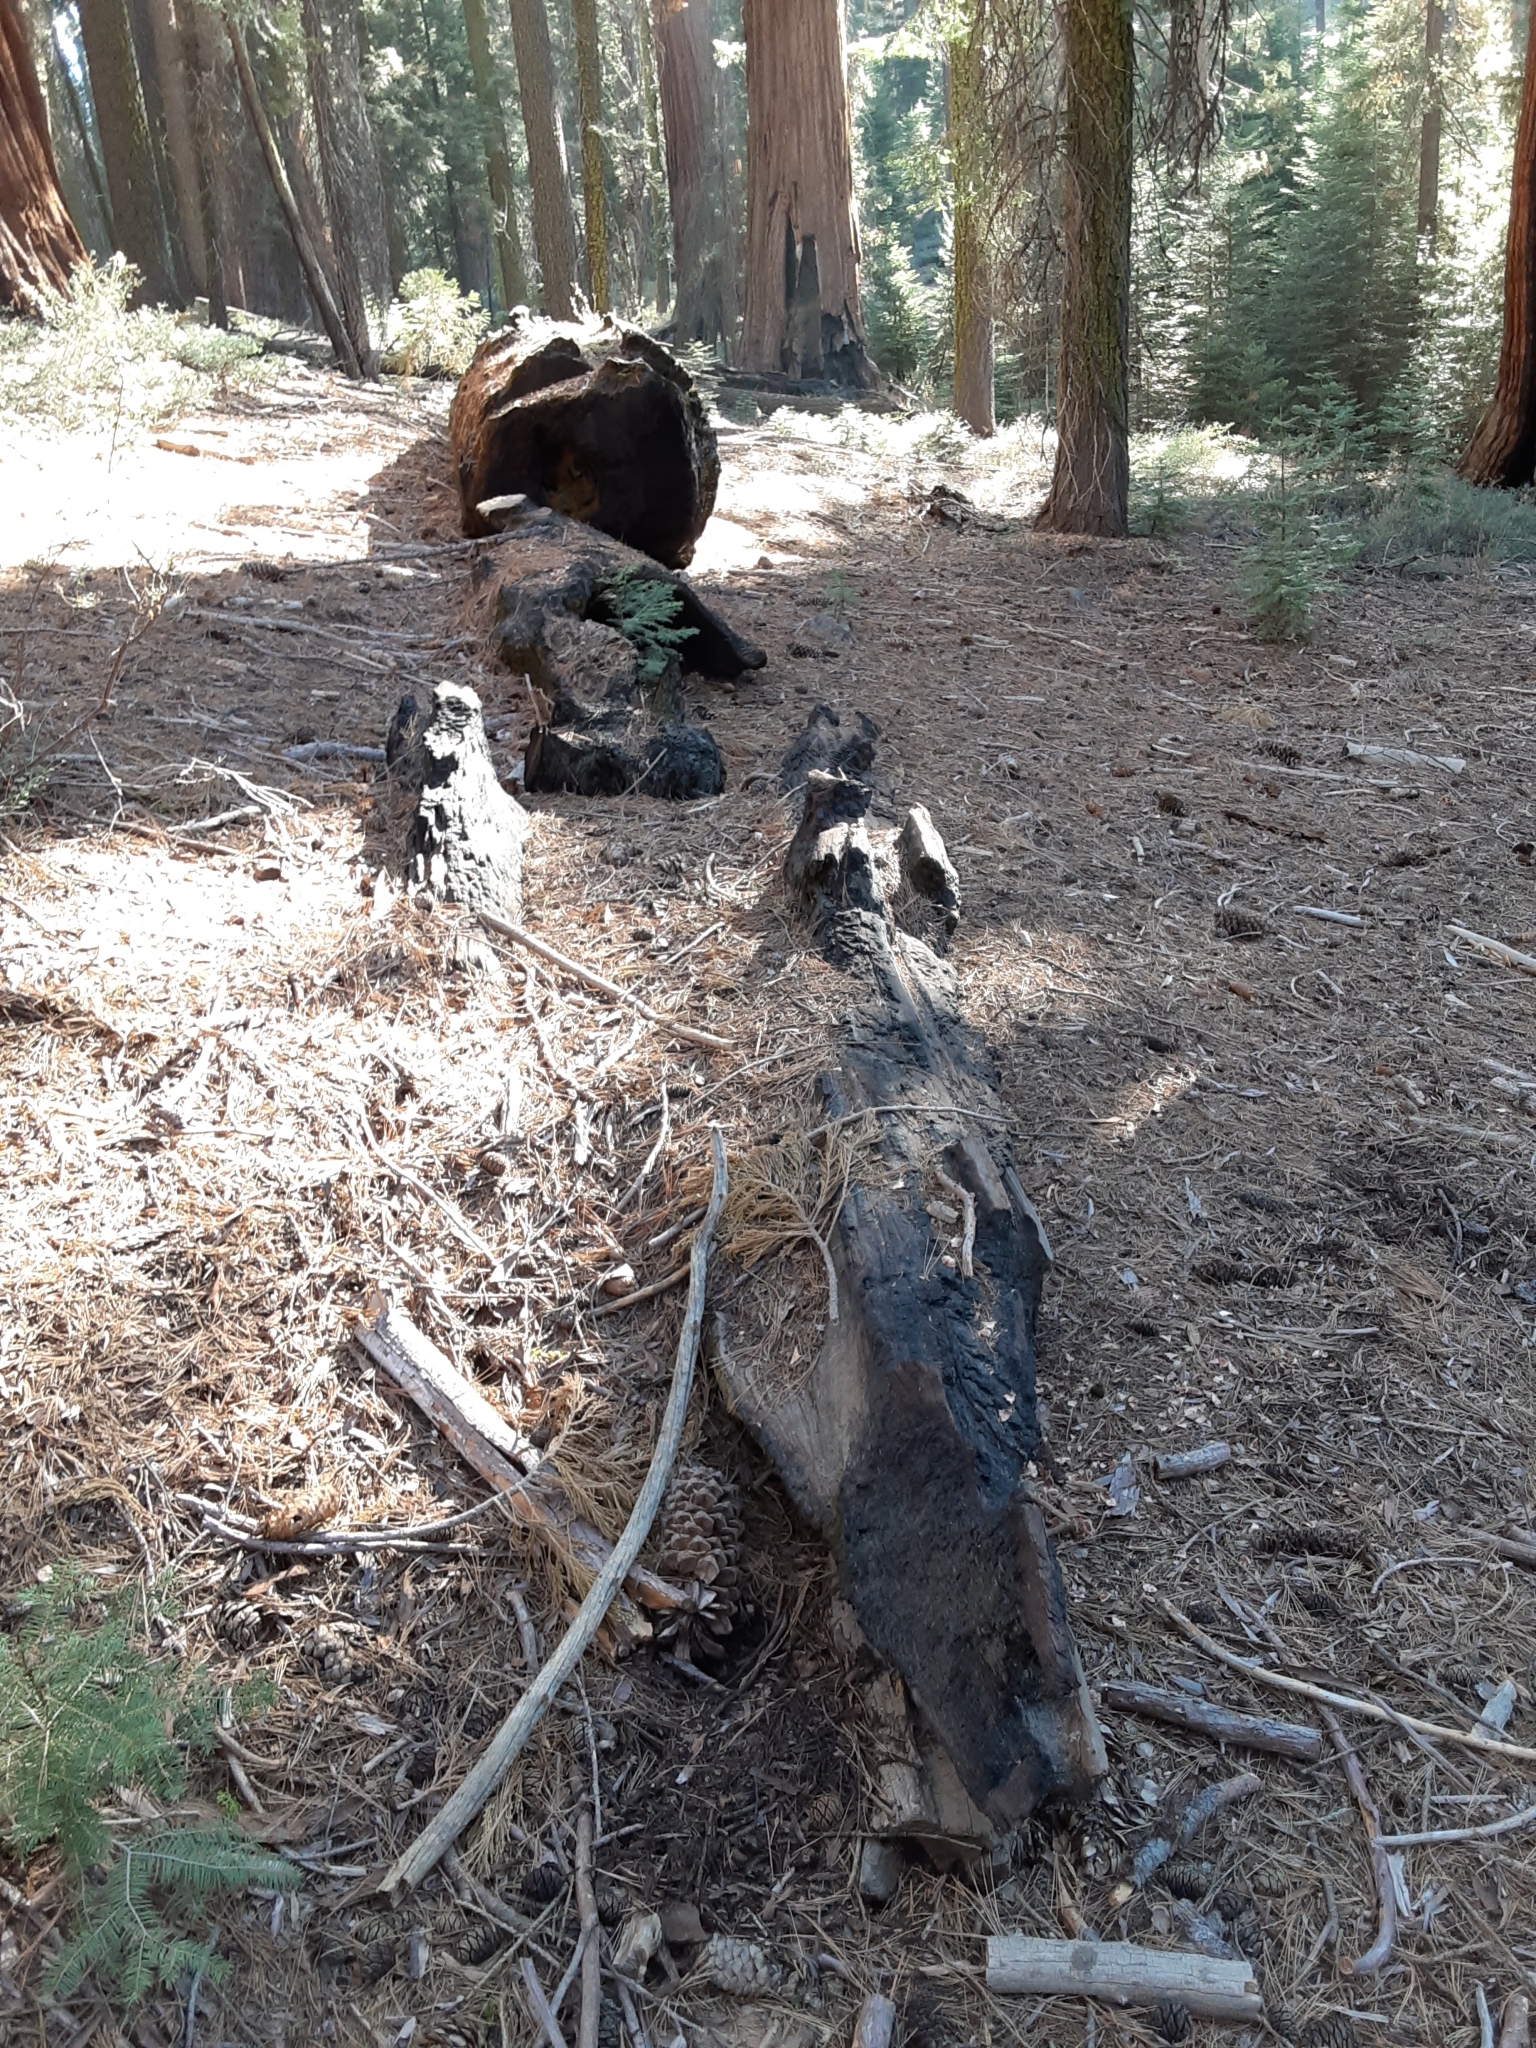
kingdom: Plantae
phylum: Tracheophyta
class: Pinopsida
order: Pinales
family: Cupressaceae
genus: Sequoiadendron
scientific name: Sequoiadendron giganteum
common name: Wellingtonia
